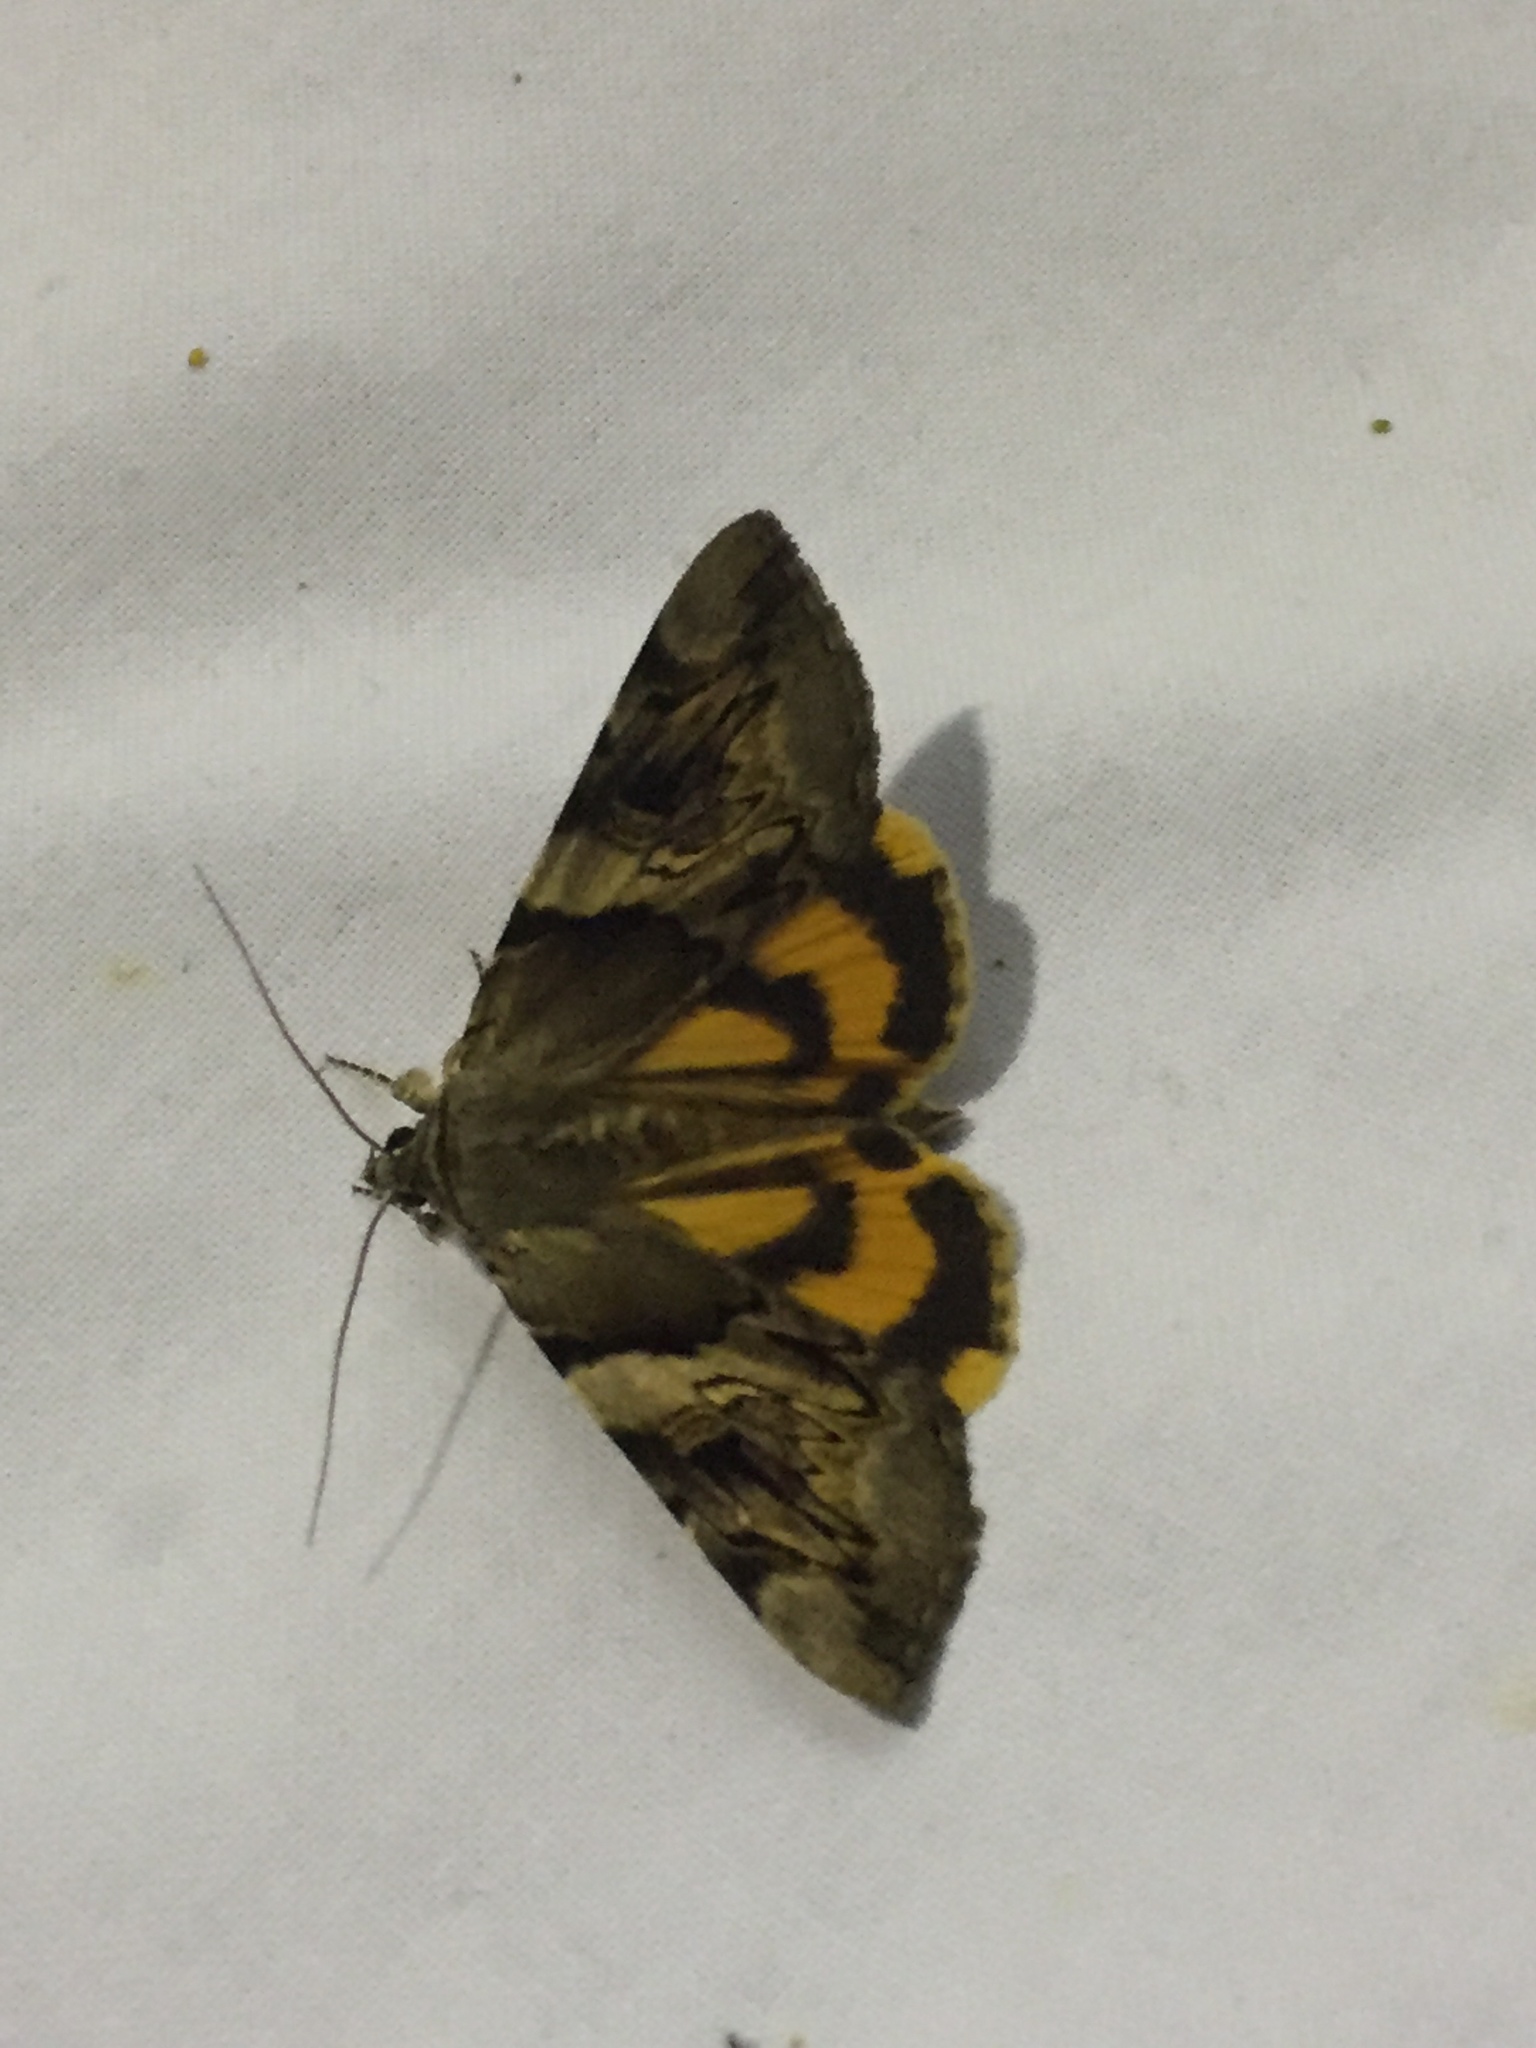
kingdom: Animalia
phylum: Arthropoda
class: Insecta
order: Lepidoptera
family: Erebidae
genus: Catocala
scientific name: Catocala fulminea
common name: Yellow bands underwing
